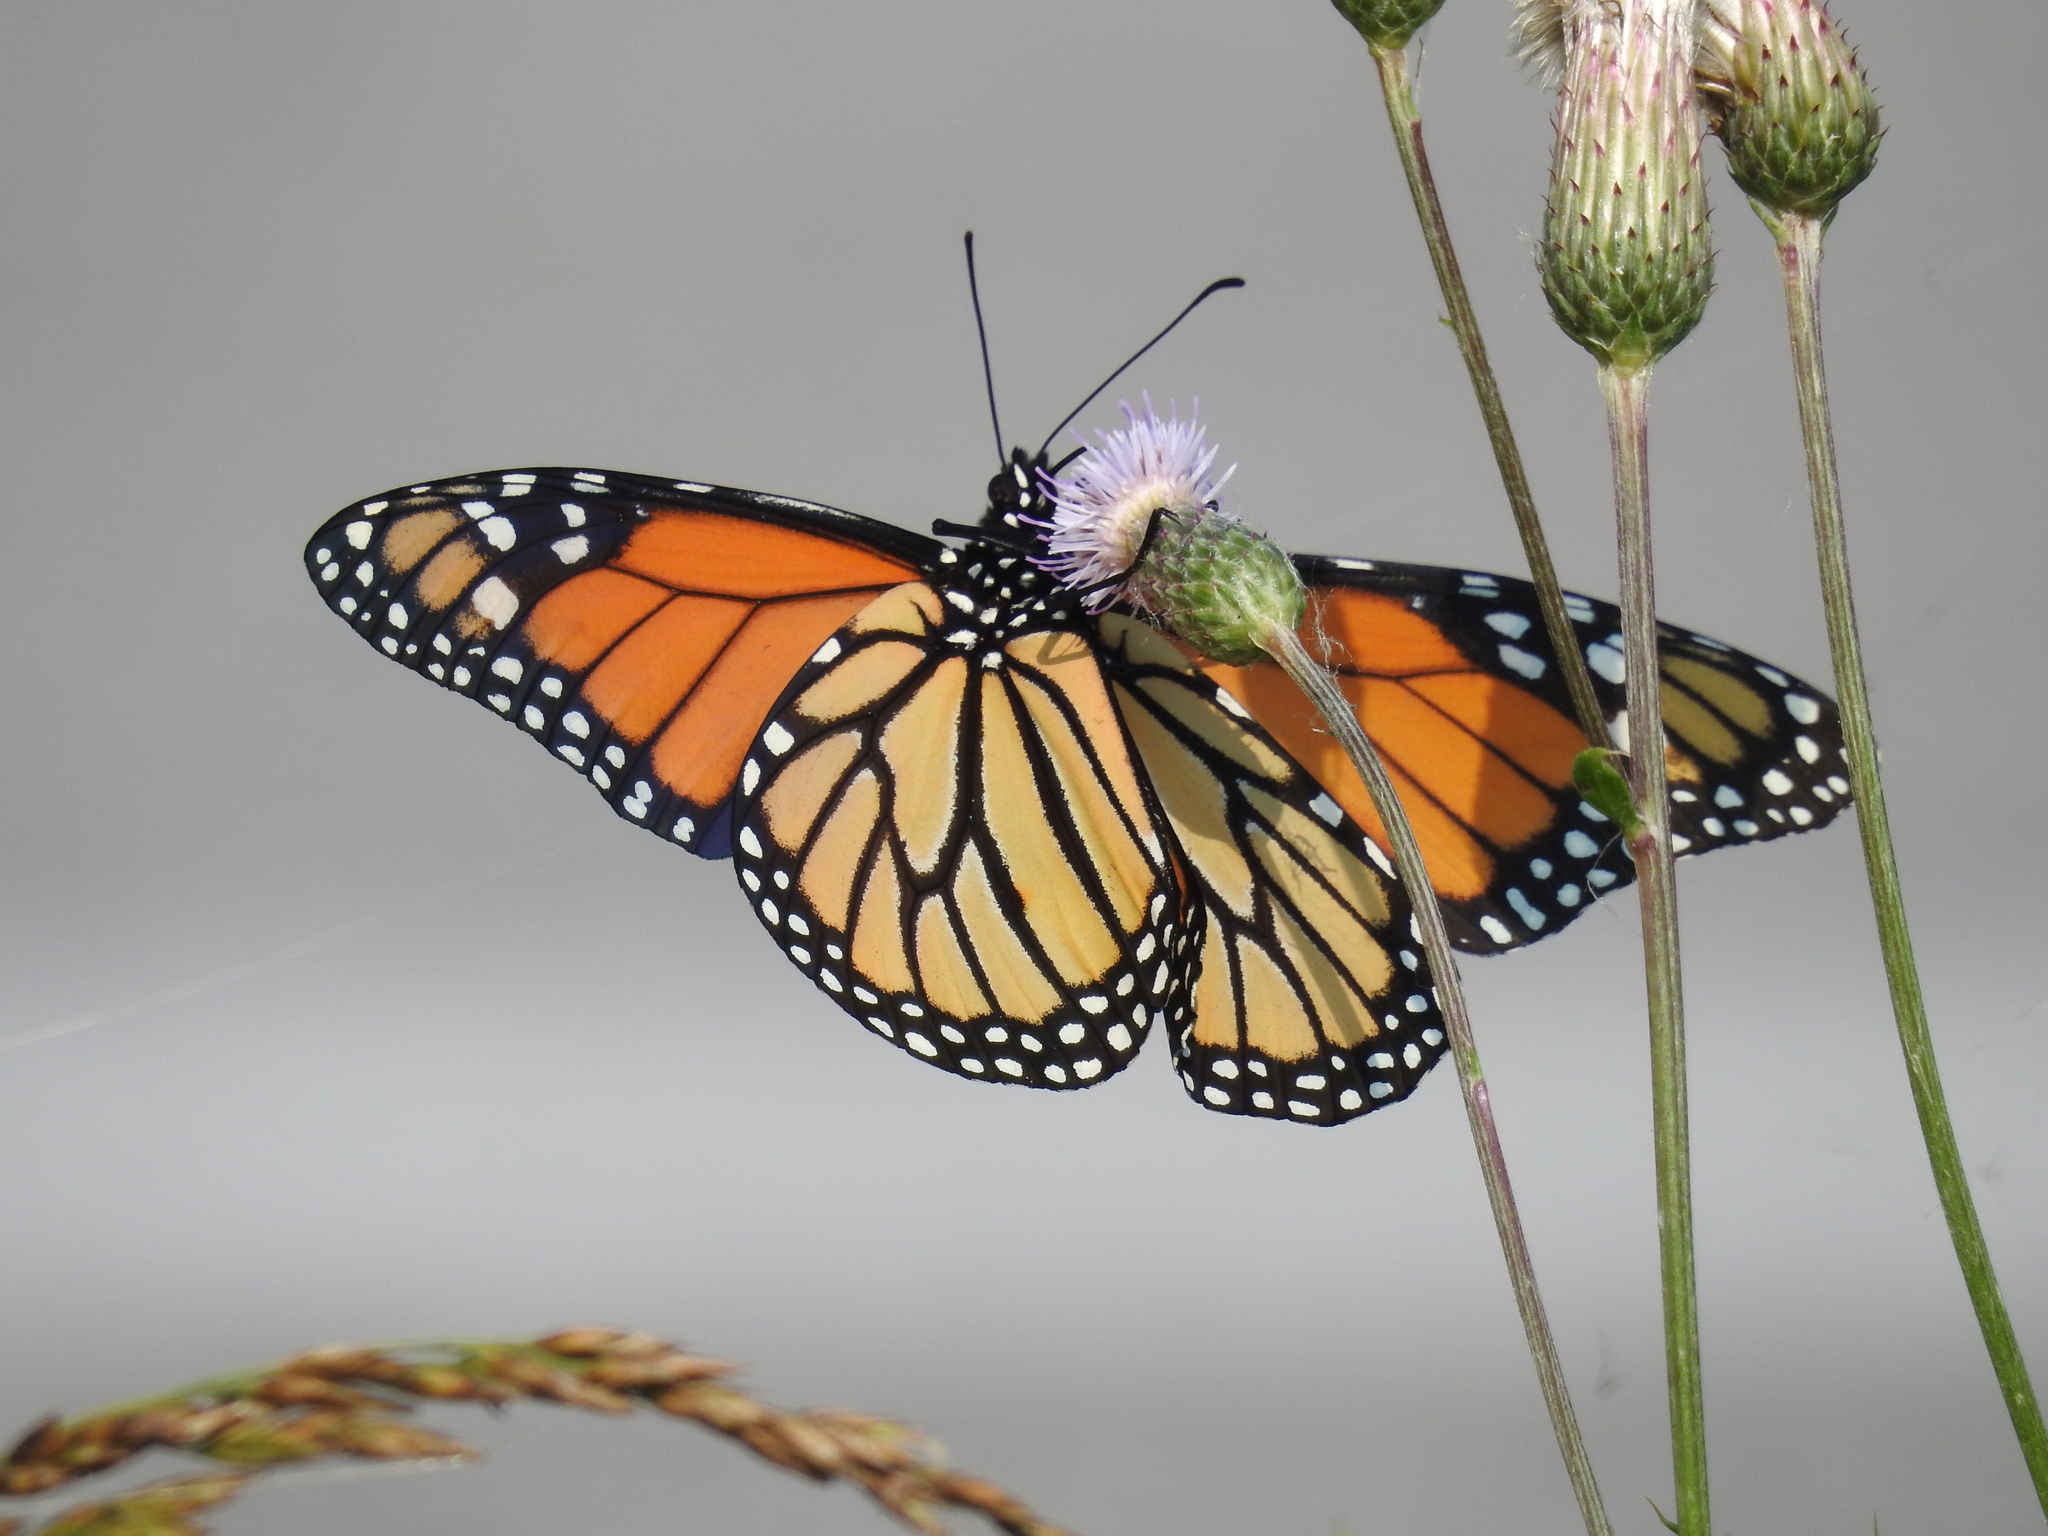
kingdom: Animalia
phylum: Arthropoda
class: Insecta
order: Lepidoptera
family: Nymphalidae
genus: Danaus
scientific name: Danaus plexippus
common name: Monarch
